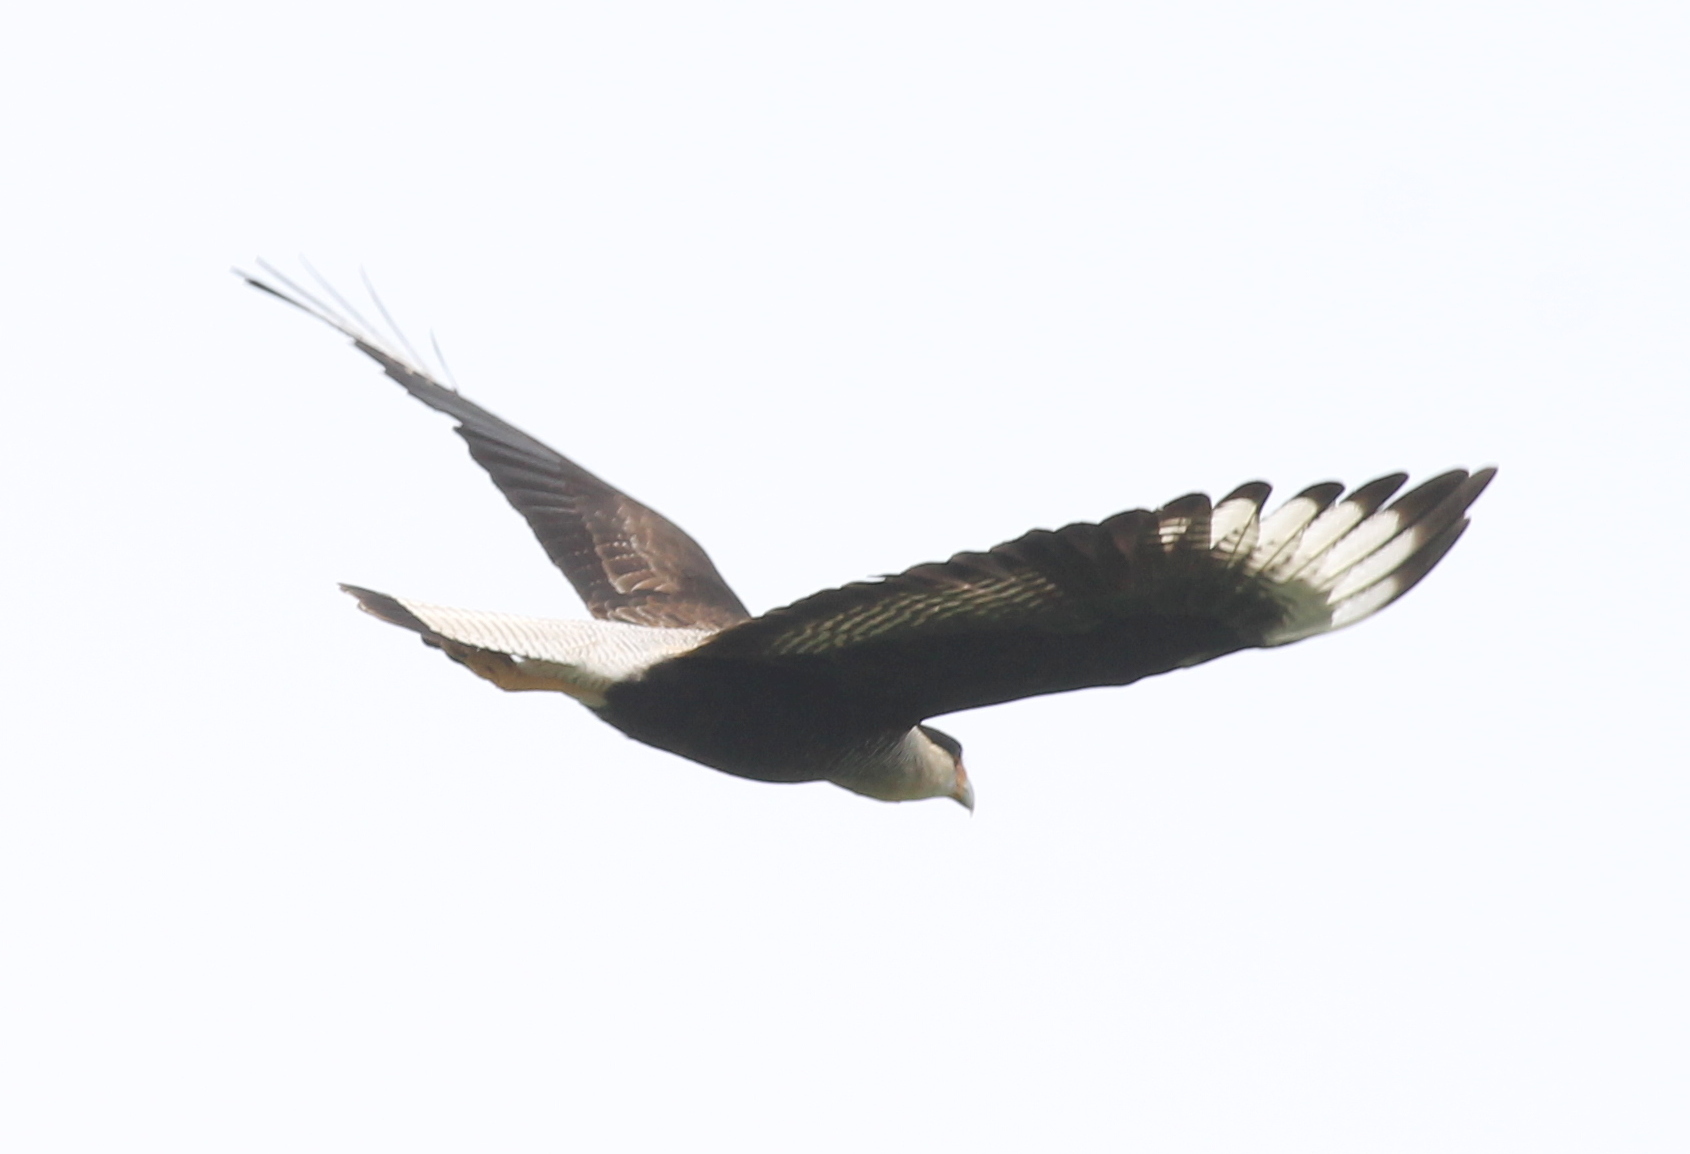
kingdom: Animalia
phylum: Chordata
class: Aves
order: Falconiformes
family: Falconidae
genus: Caracara
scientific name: Caracara plancus
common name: Southern caracara
